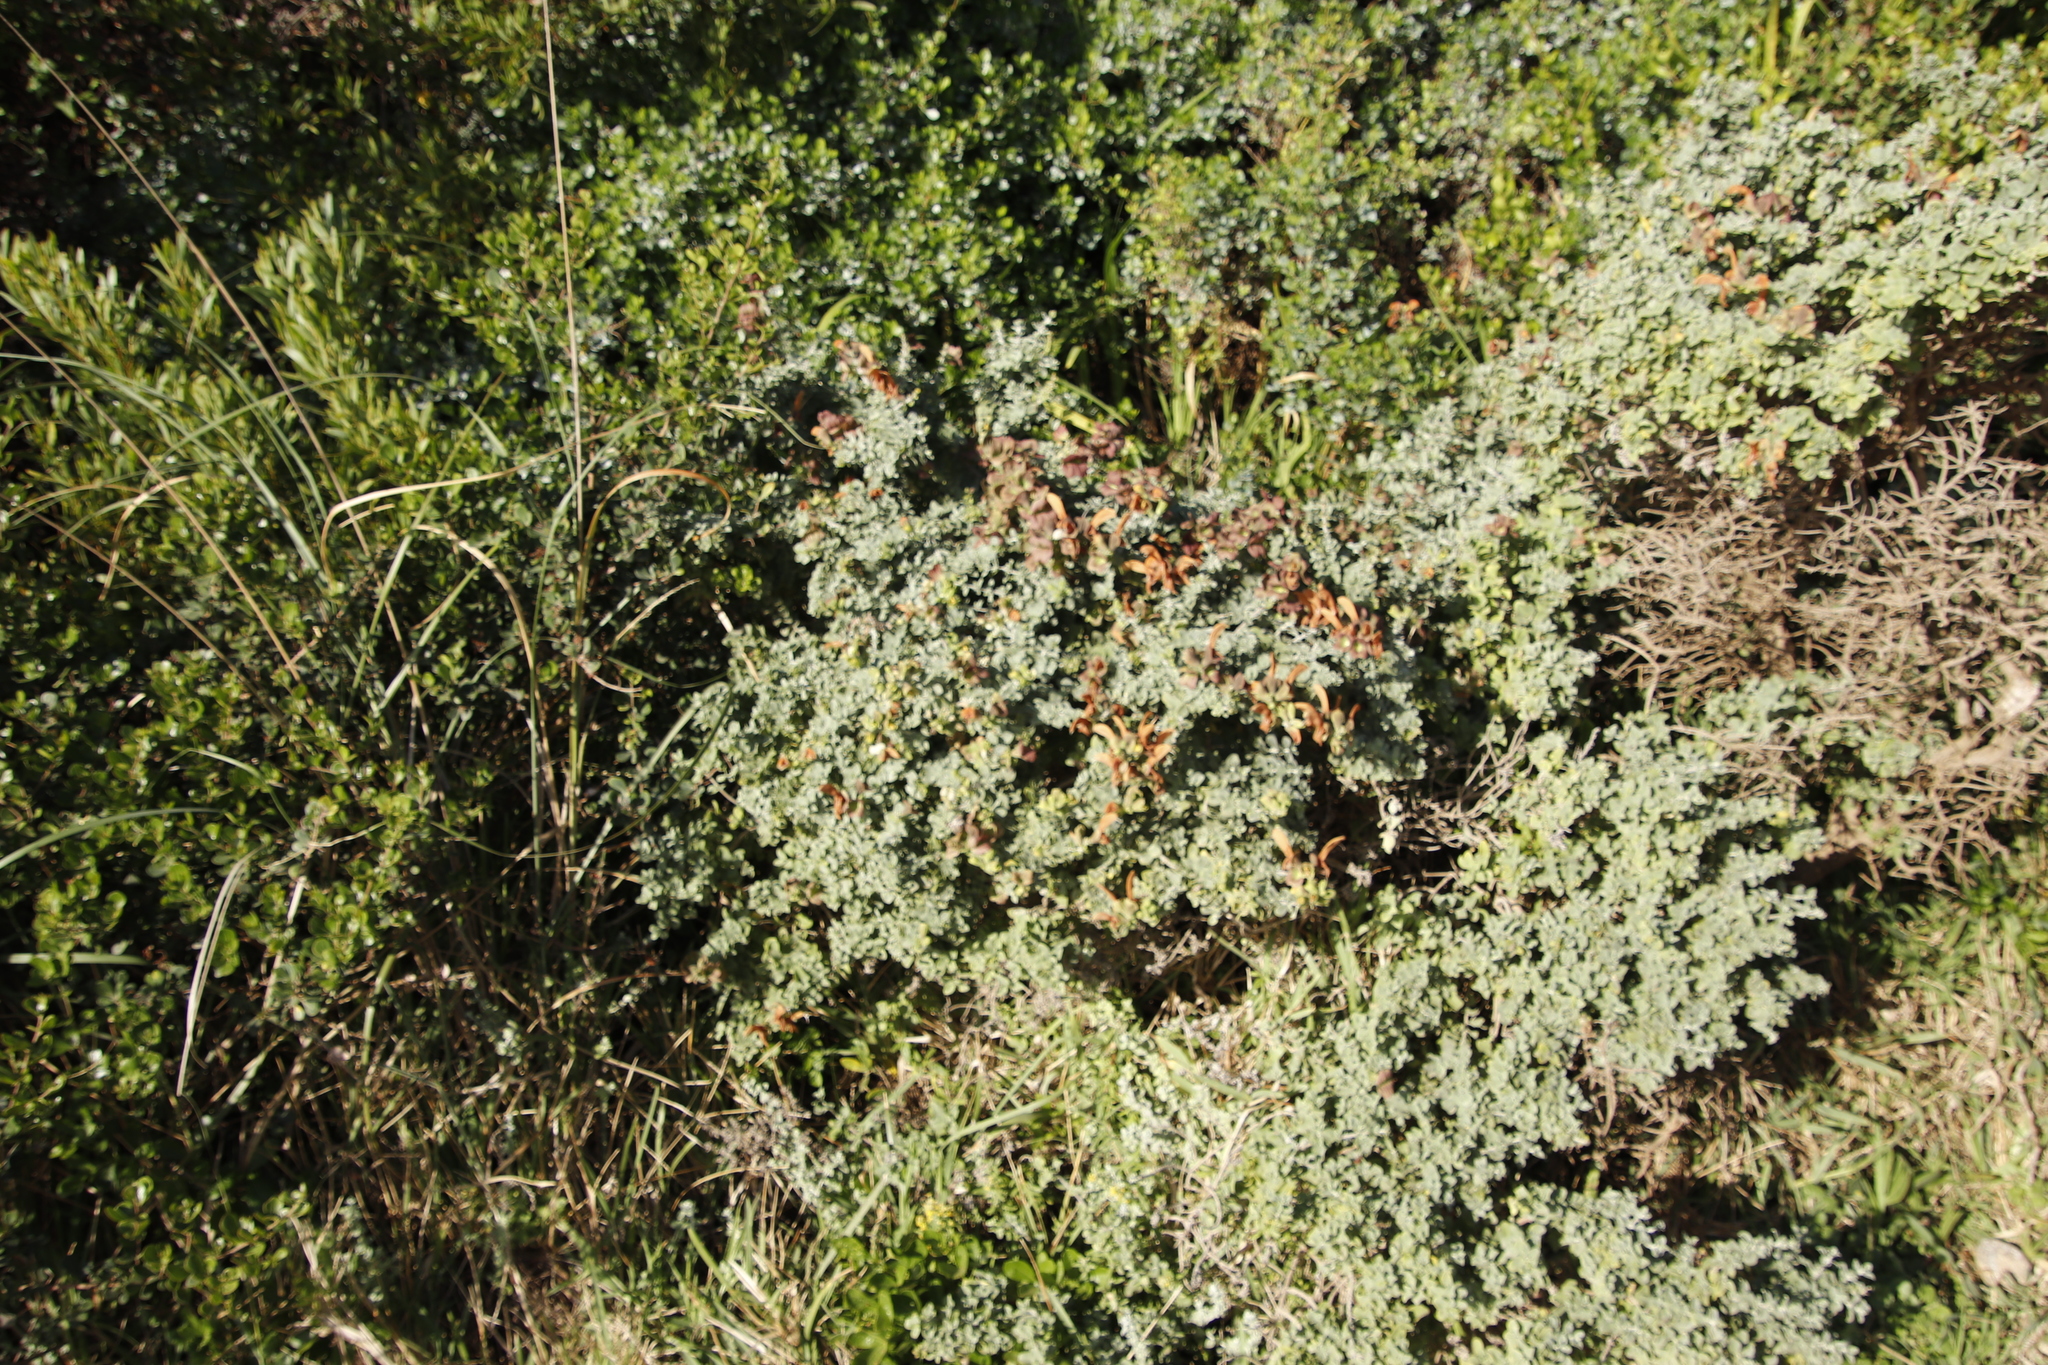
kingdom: Plantae
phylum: Tracheophyta
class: Magnoliopsida
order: Lamiales
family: Lamiaceae
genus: Salvia
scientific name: Salvia aurea
